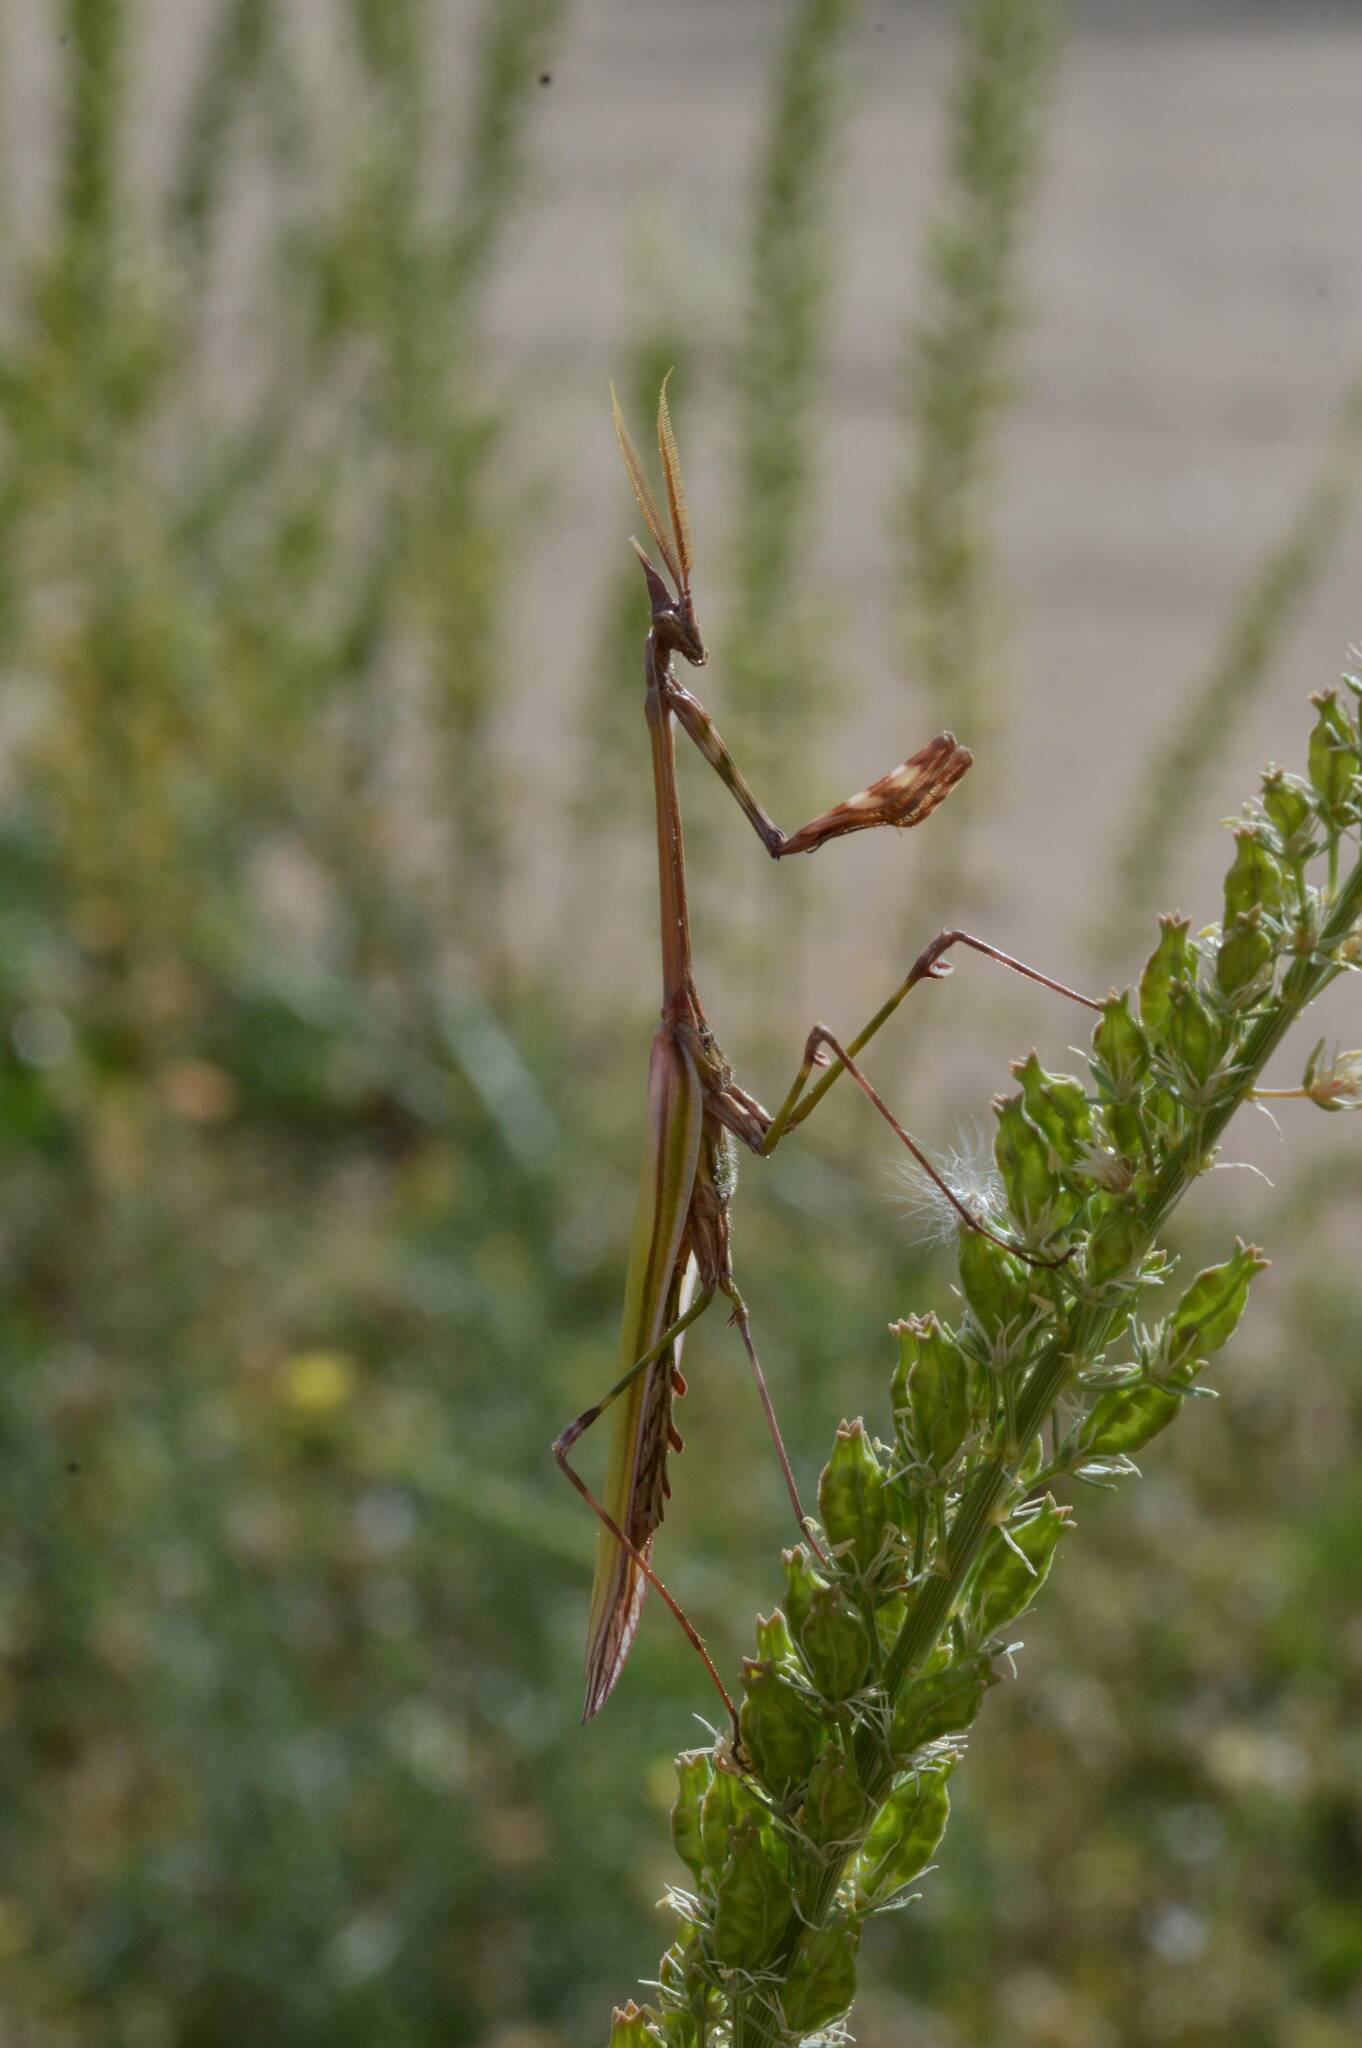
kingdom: Animalia
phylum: Arthropoda
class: Insecta
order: Mantodea
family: Empusidae
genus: Empusa
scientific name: Empusa pennata
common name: Conehead mantis
